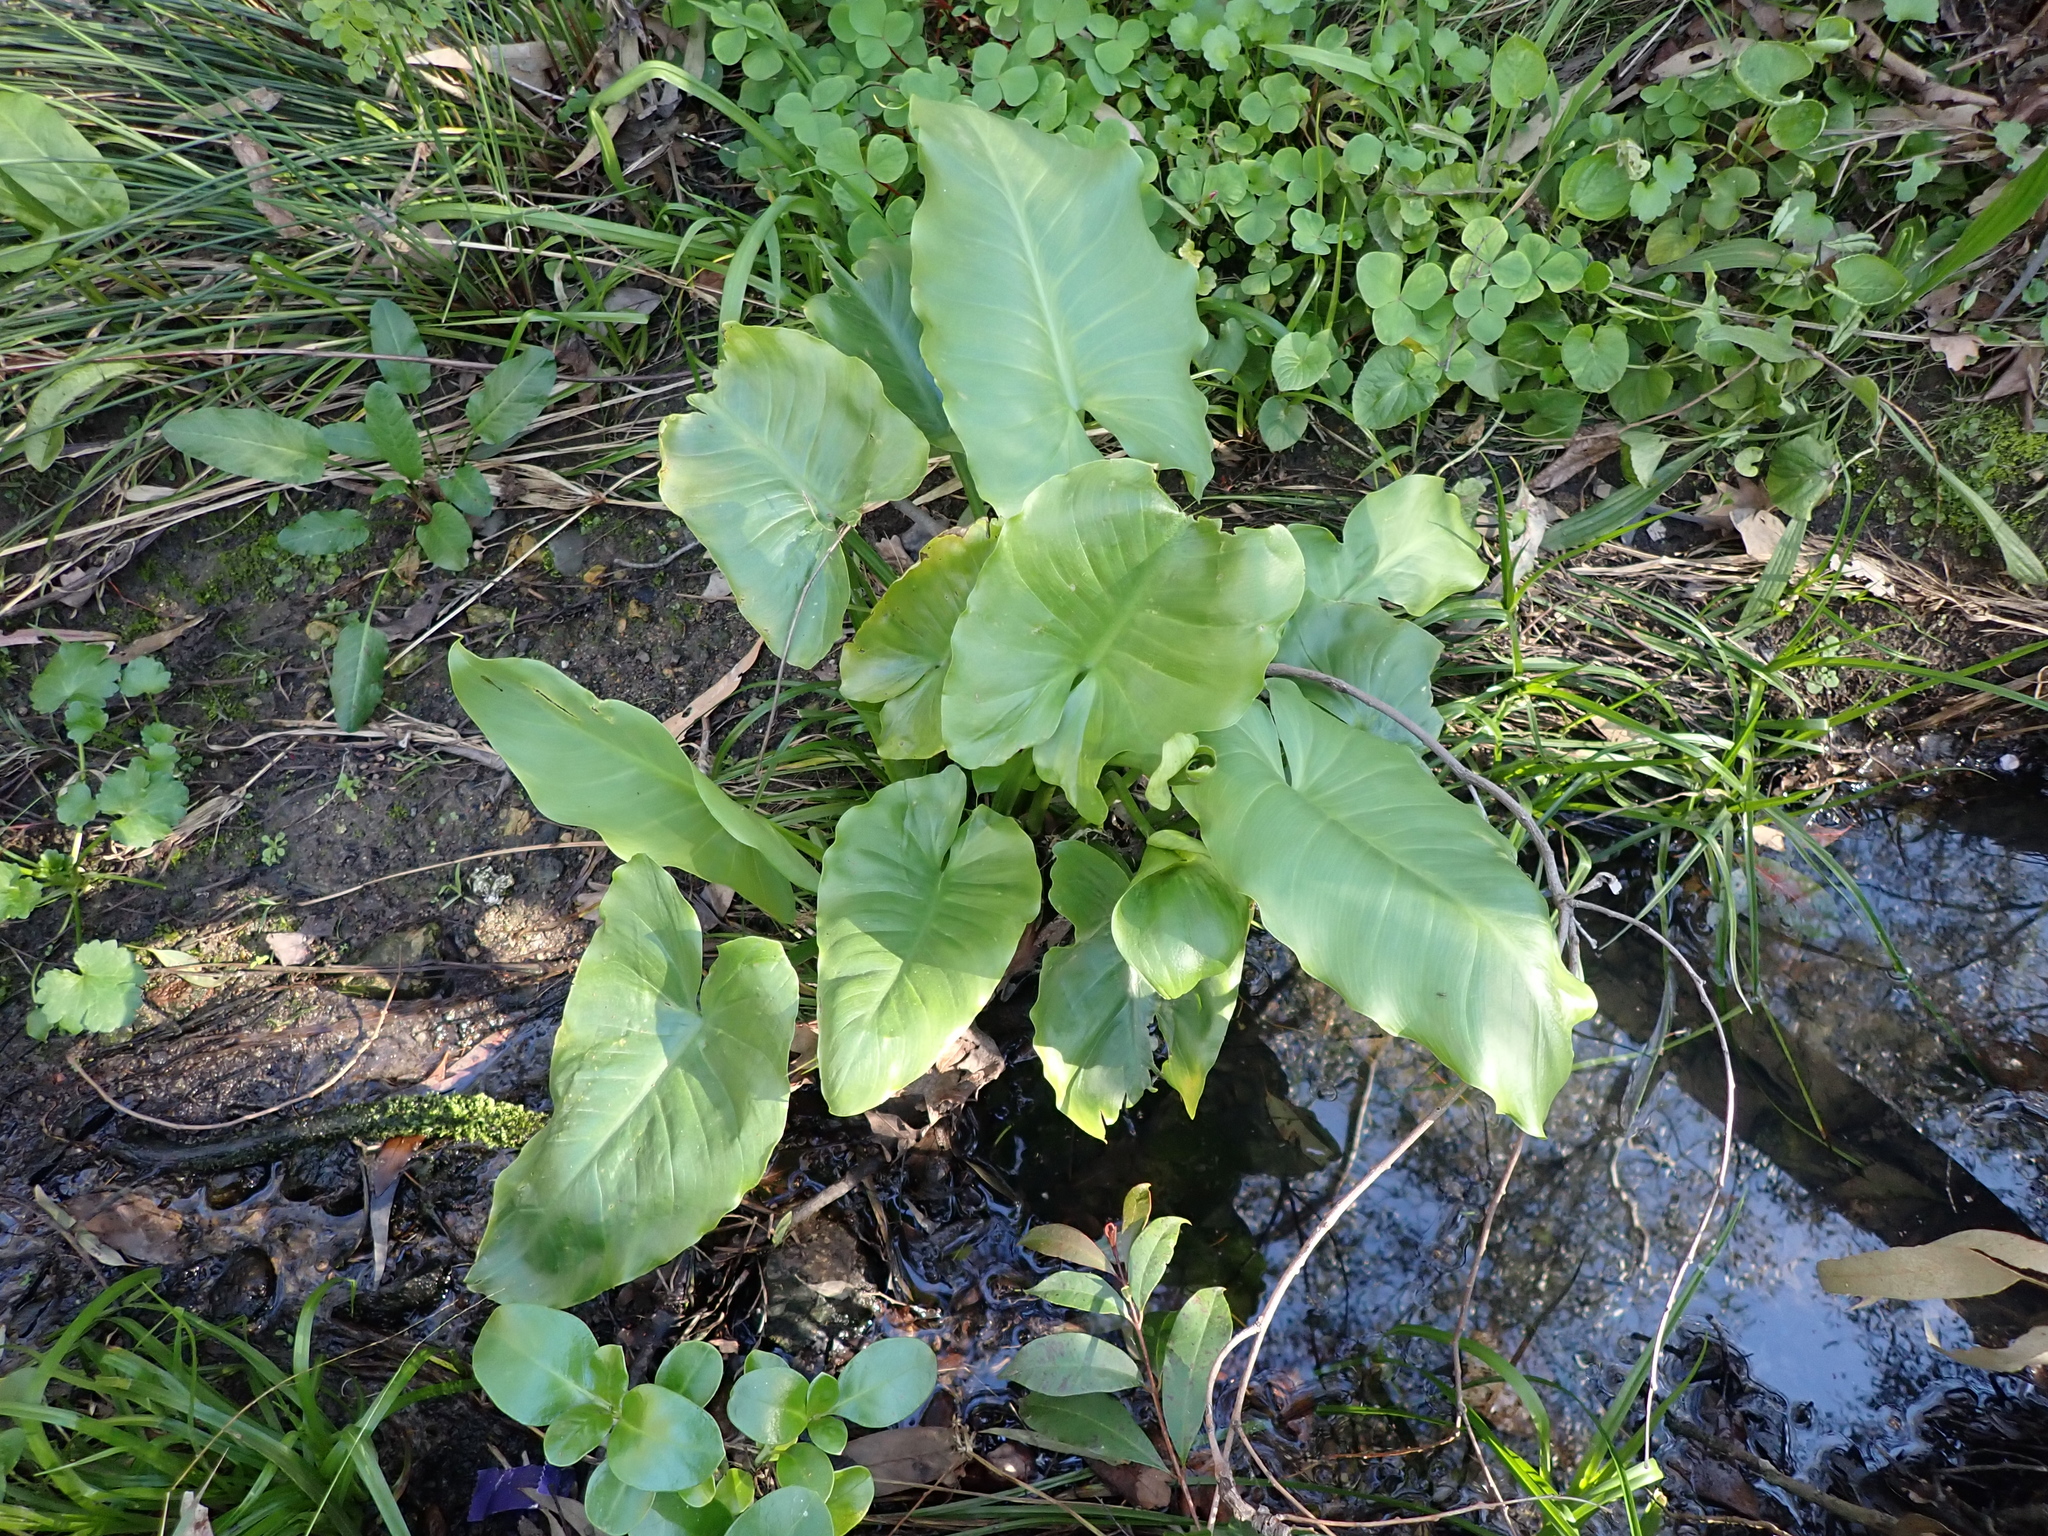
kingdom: Plantae
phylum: Tracheophyta
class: Liliopsida
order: Alismatales
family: Araceae
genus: Zantedeschia
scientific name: Zantedeschia aethiopica
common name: Altar-lily
